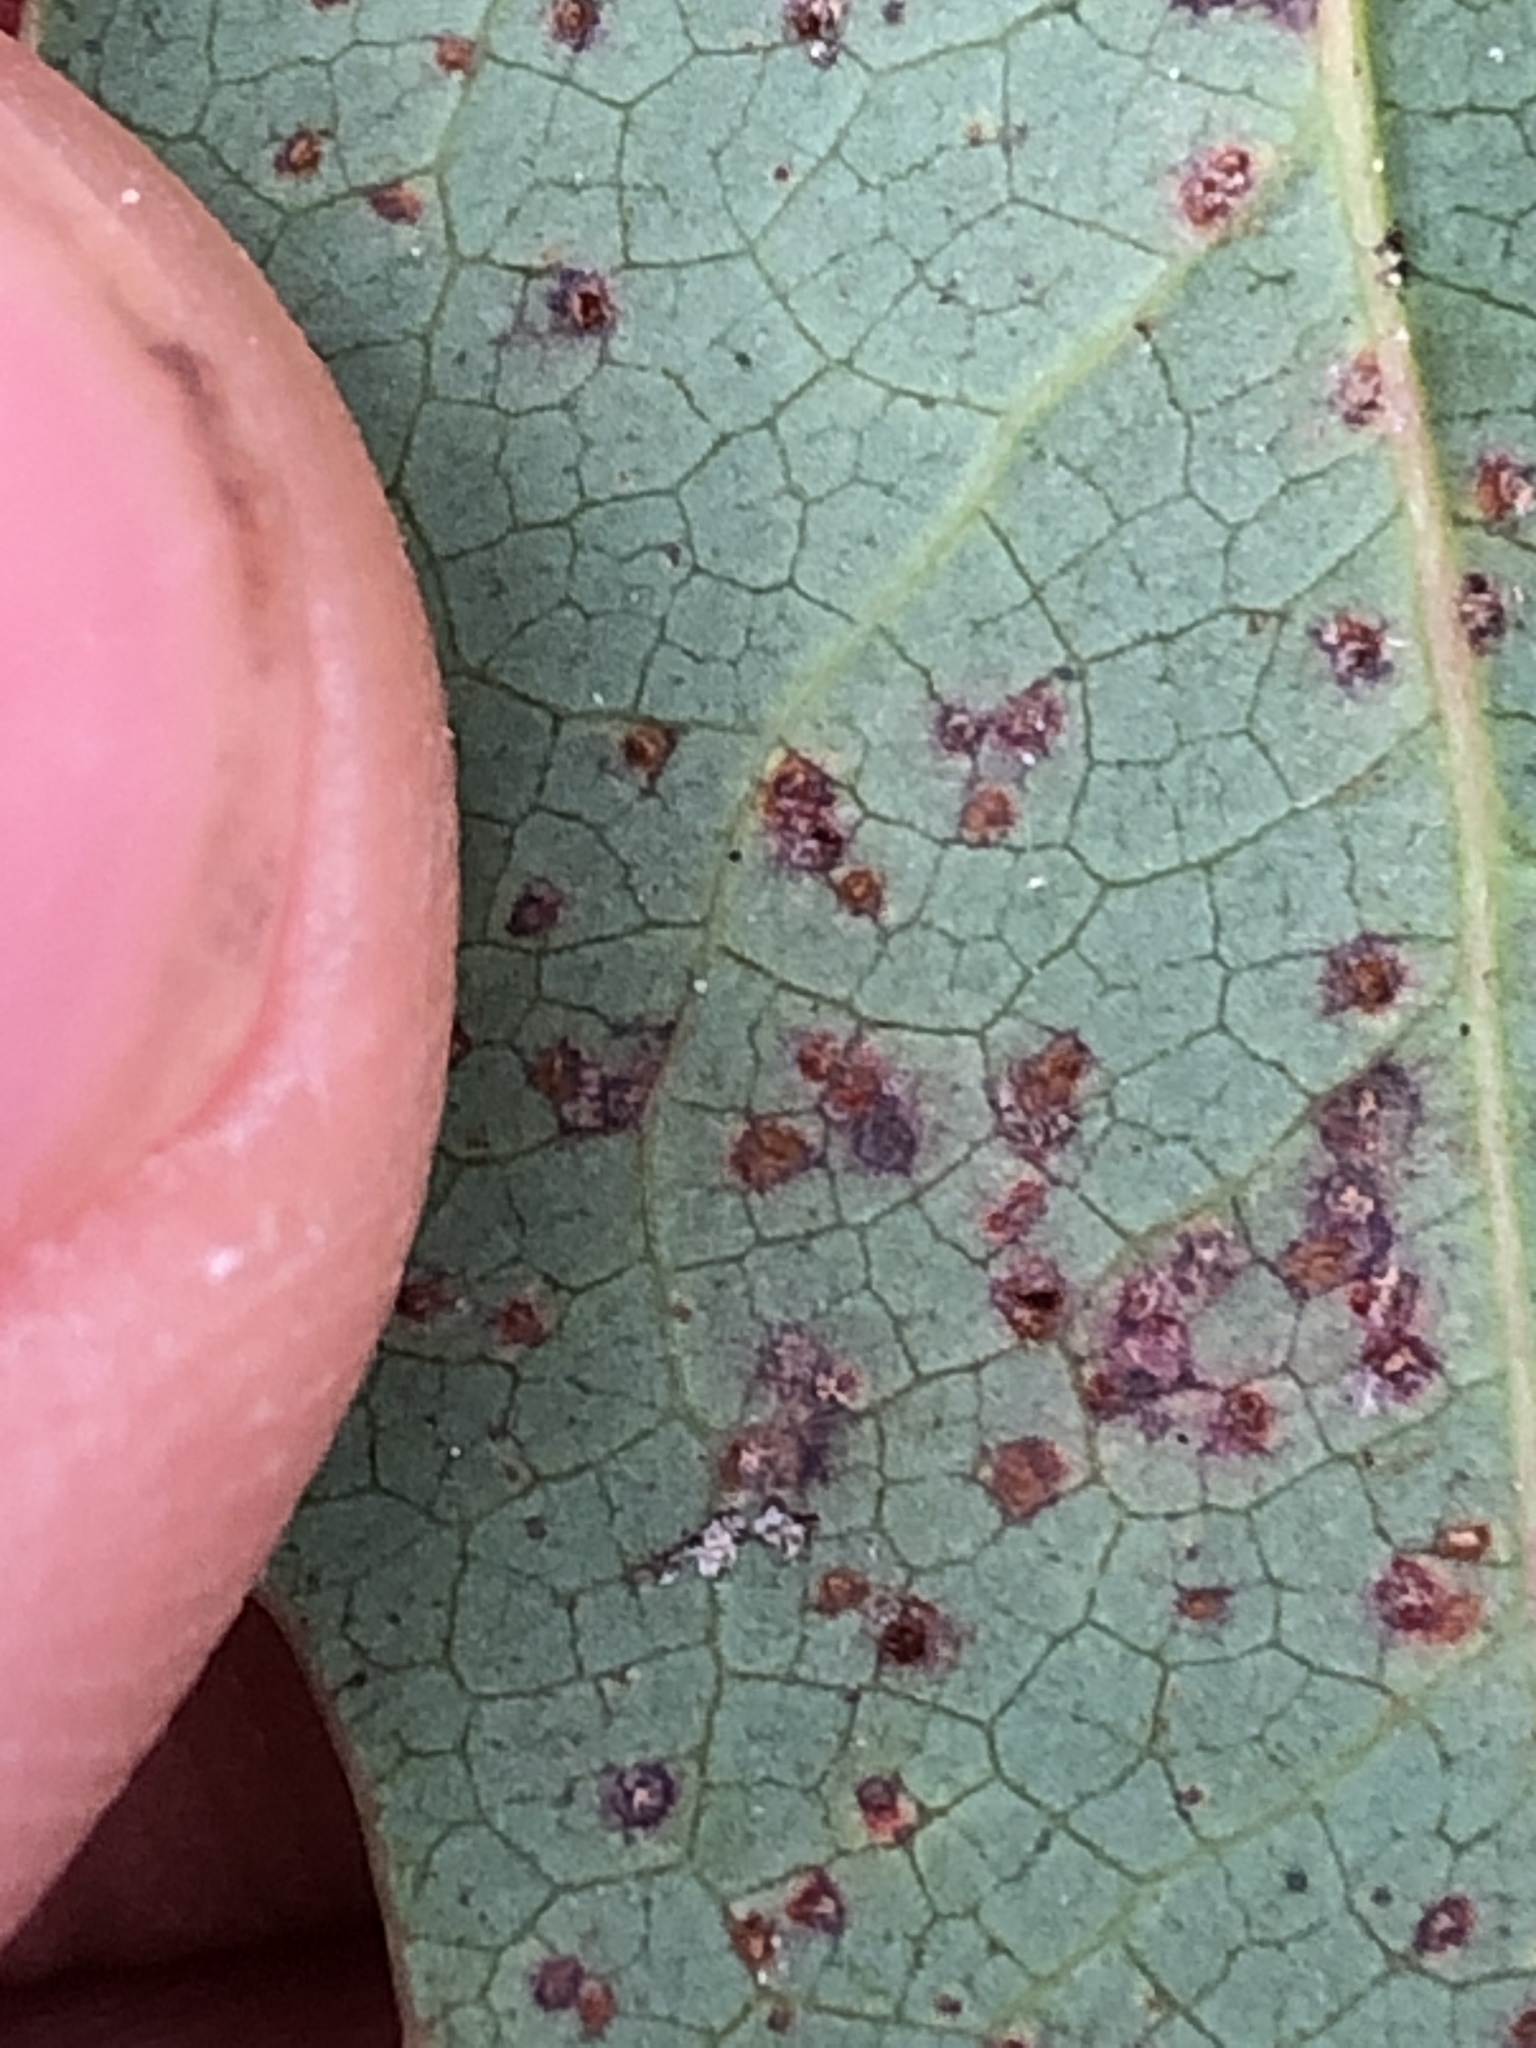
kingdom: Fungi
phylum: Basidiomycota
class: Pucciniomycetes
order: Pucciniales
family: Pucciniaceae
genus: Cumminsiella
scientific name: Cumminsiella mirabilissima
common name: Mahonia rust
